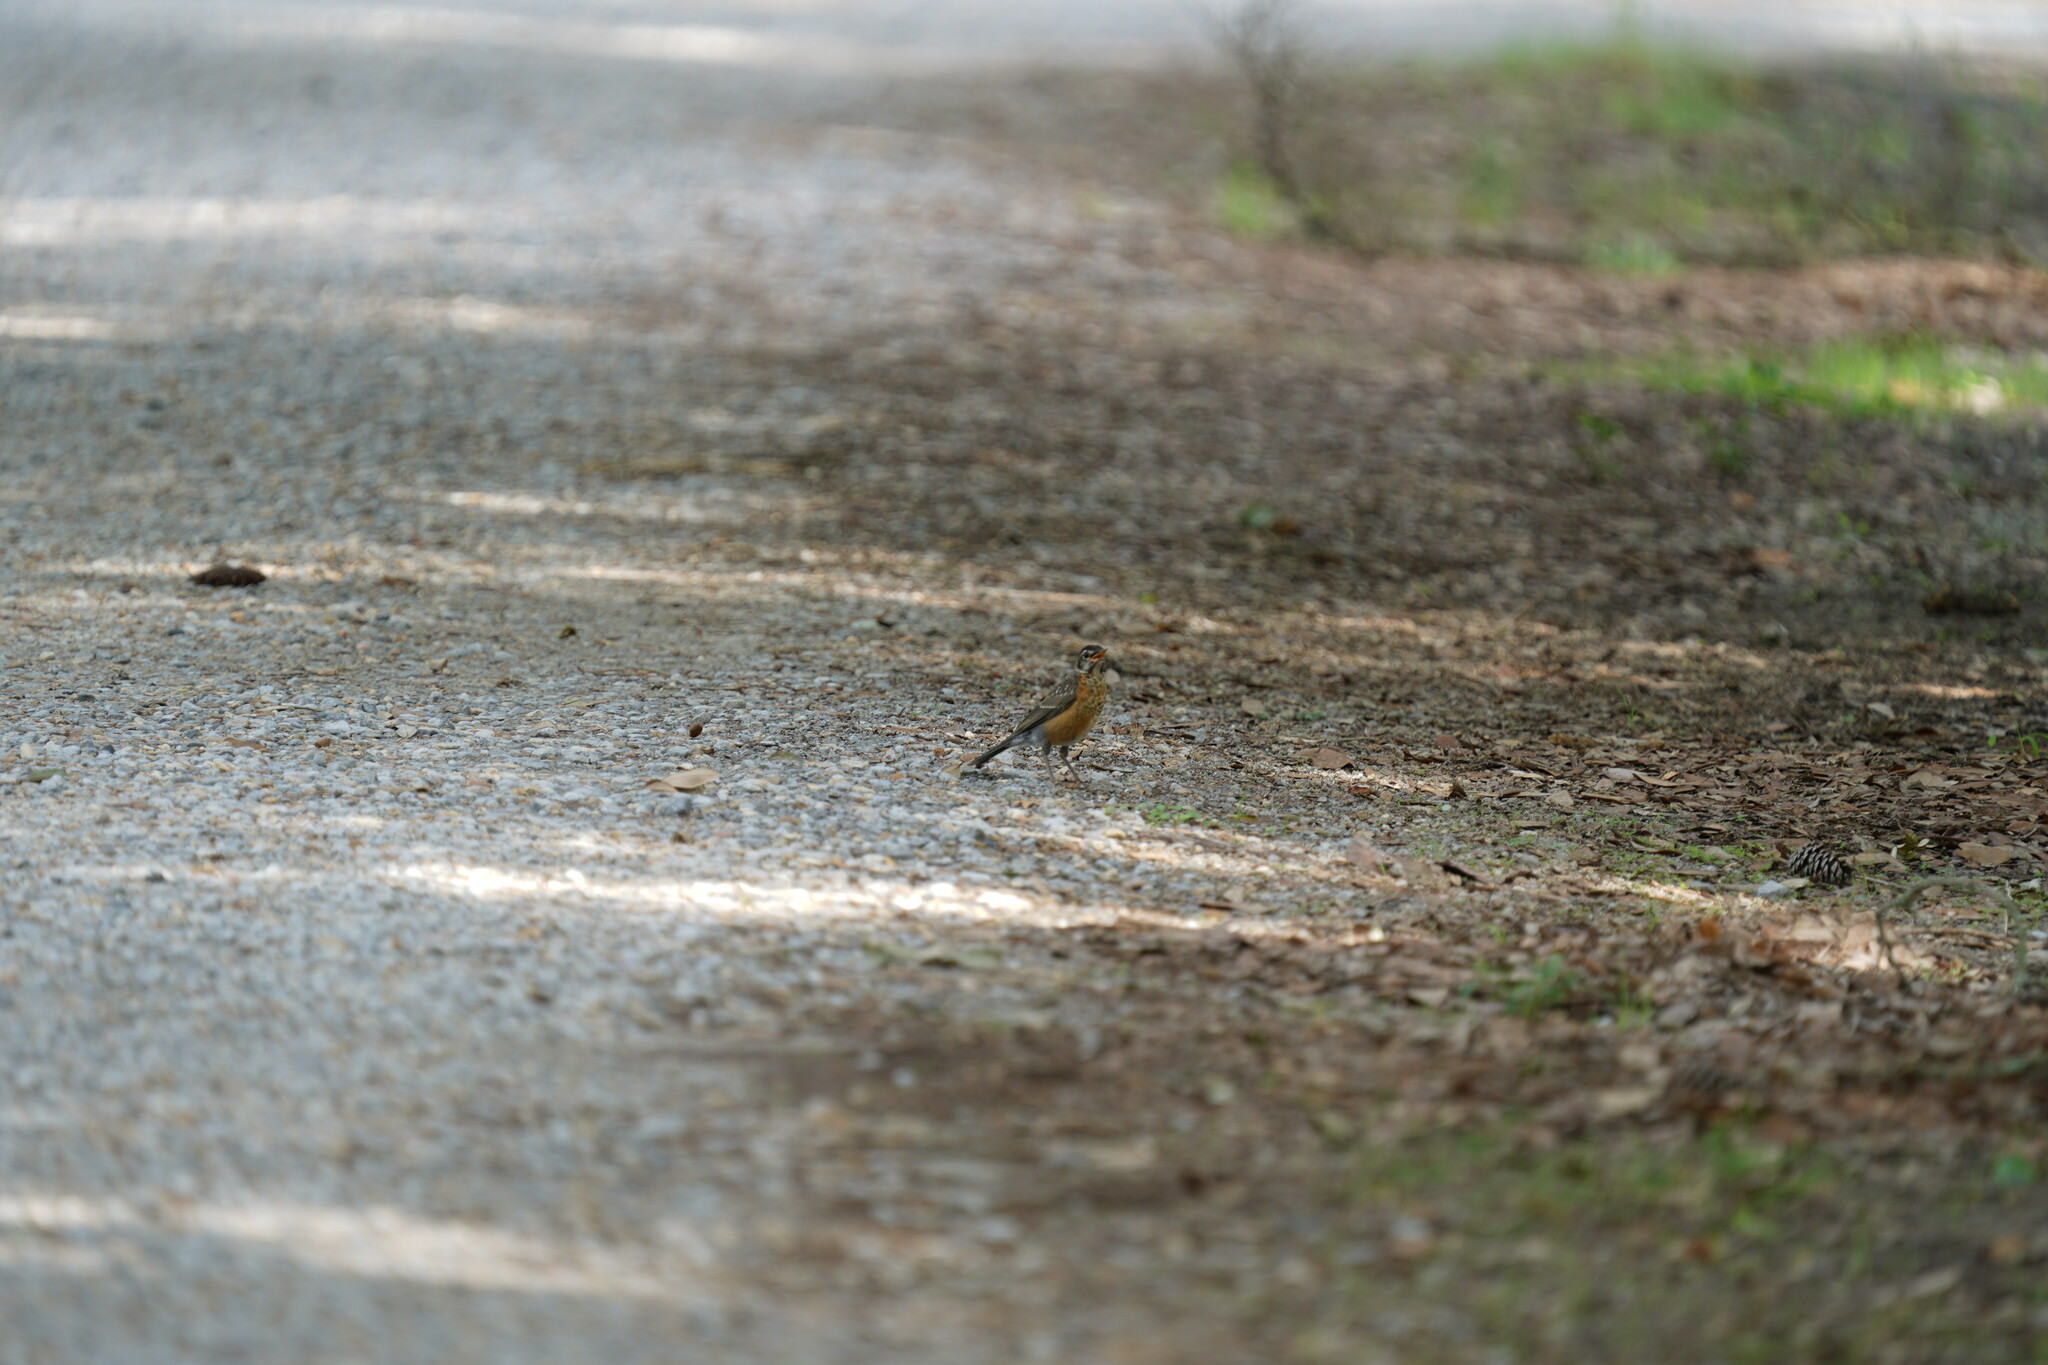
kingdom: Animalia
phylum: Chordata
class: Aves
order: Passeriformes
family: Turdidae
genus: Turdus
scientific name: Turdus migratorius
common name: American robin
